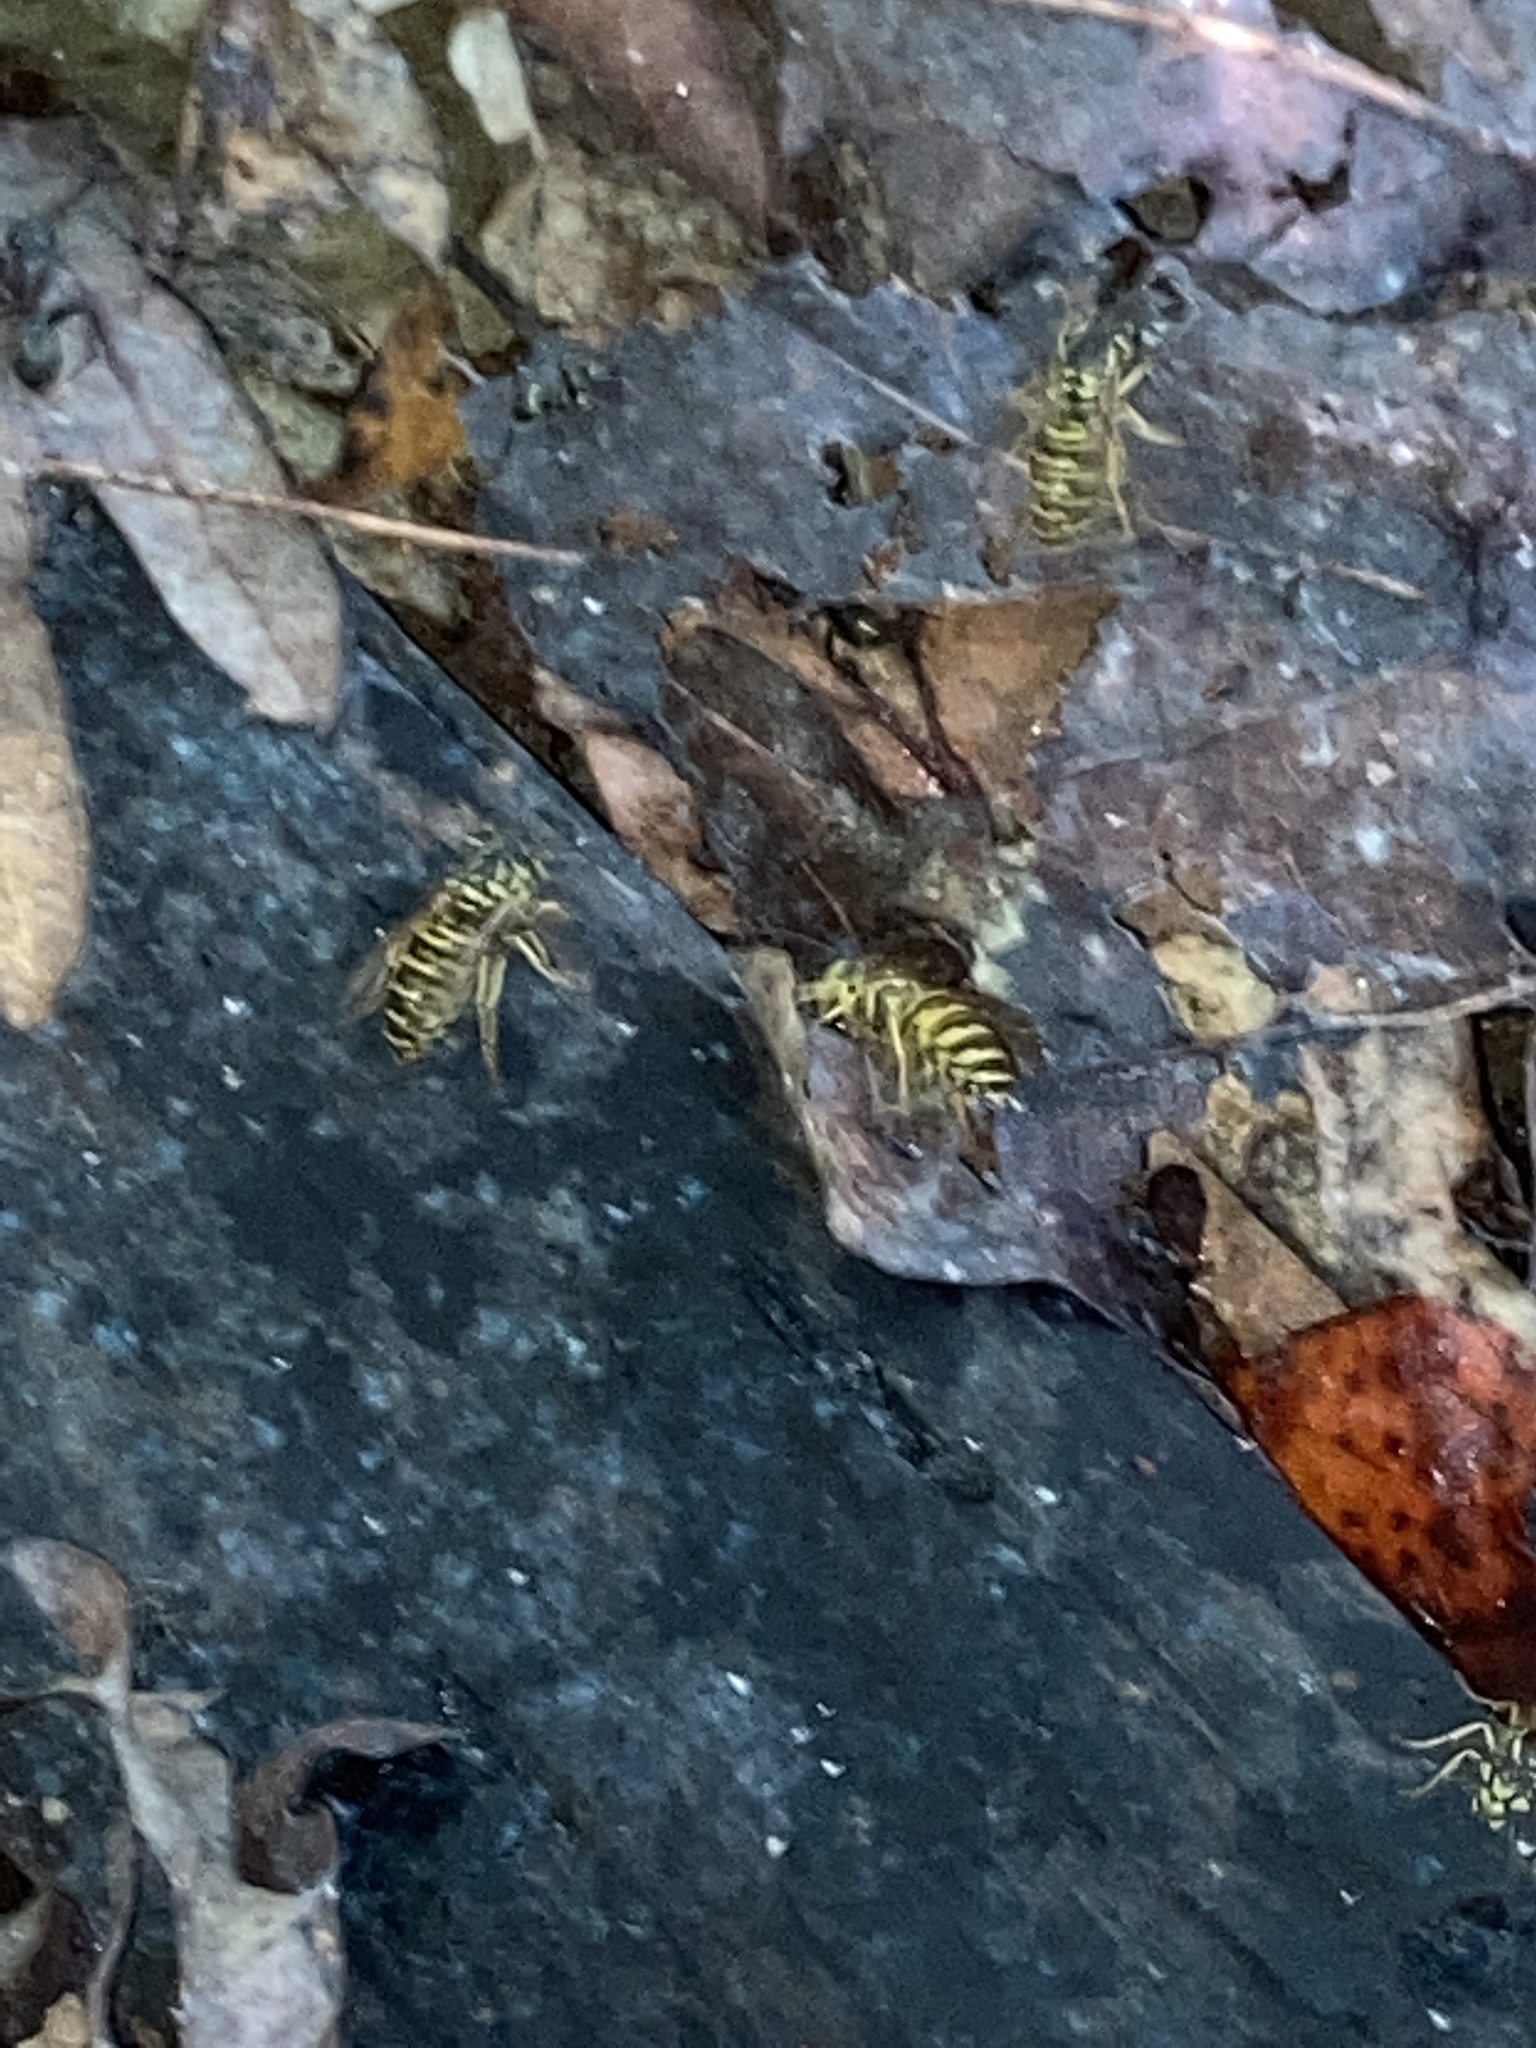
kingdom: Animalia
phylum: Arthropoda
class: Insecta
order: Hymenoptera
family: Vespidae
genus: Vespula
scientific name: Vespula maculifrons
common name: Eastern yellowjacket
